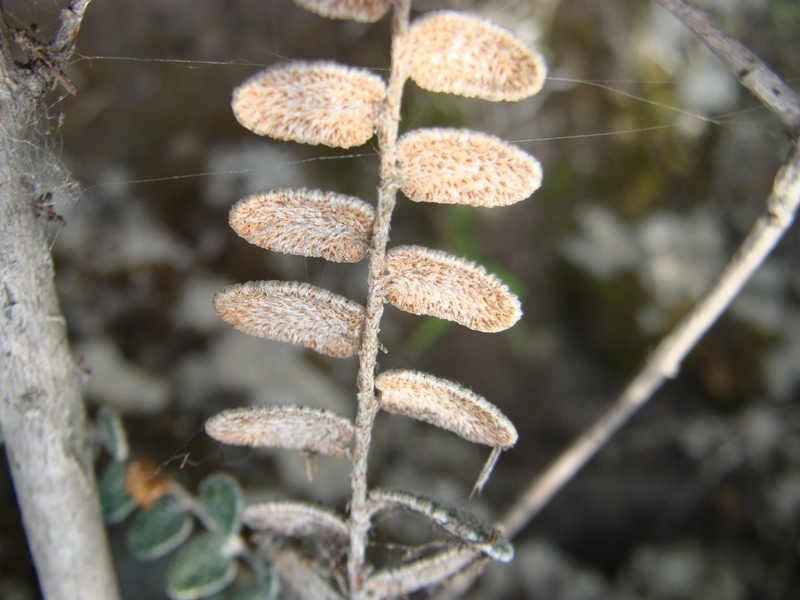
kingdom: Plantae
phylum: Tracheophyta
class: Polypodiopsida
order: Polypodiales
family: Pteridaceae
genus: Astrolepis
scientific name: Astrolepis crassifolia
